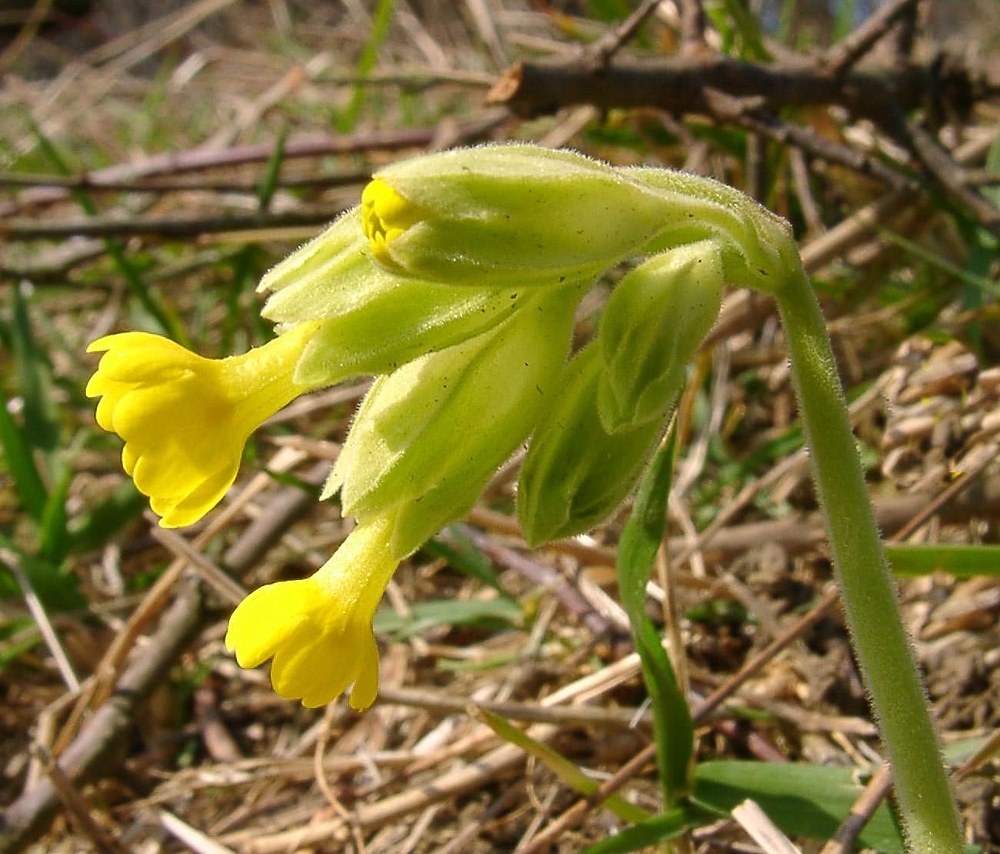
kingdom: Plantae
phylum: Tracheophyta
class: Magnoliopsida
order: Ericales
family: Primulaceae
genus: Primula
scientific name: Primula veris
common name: Cowslip
